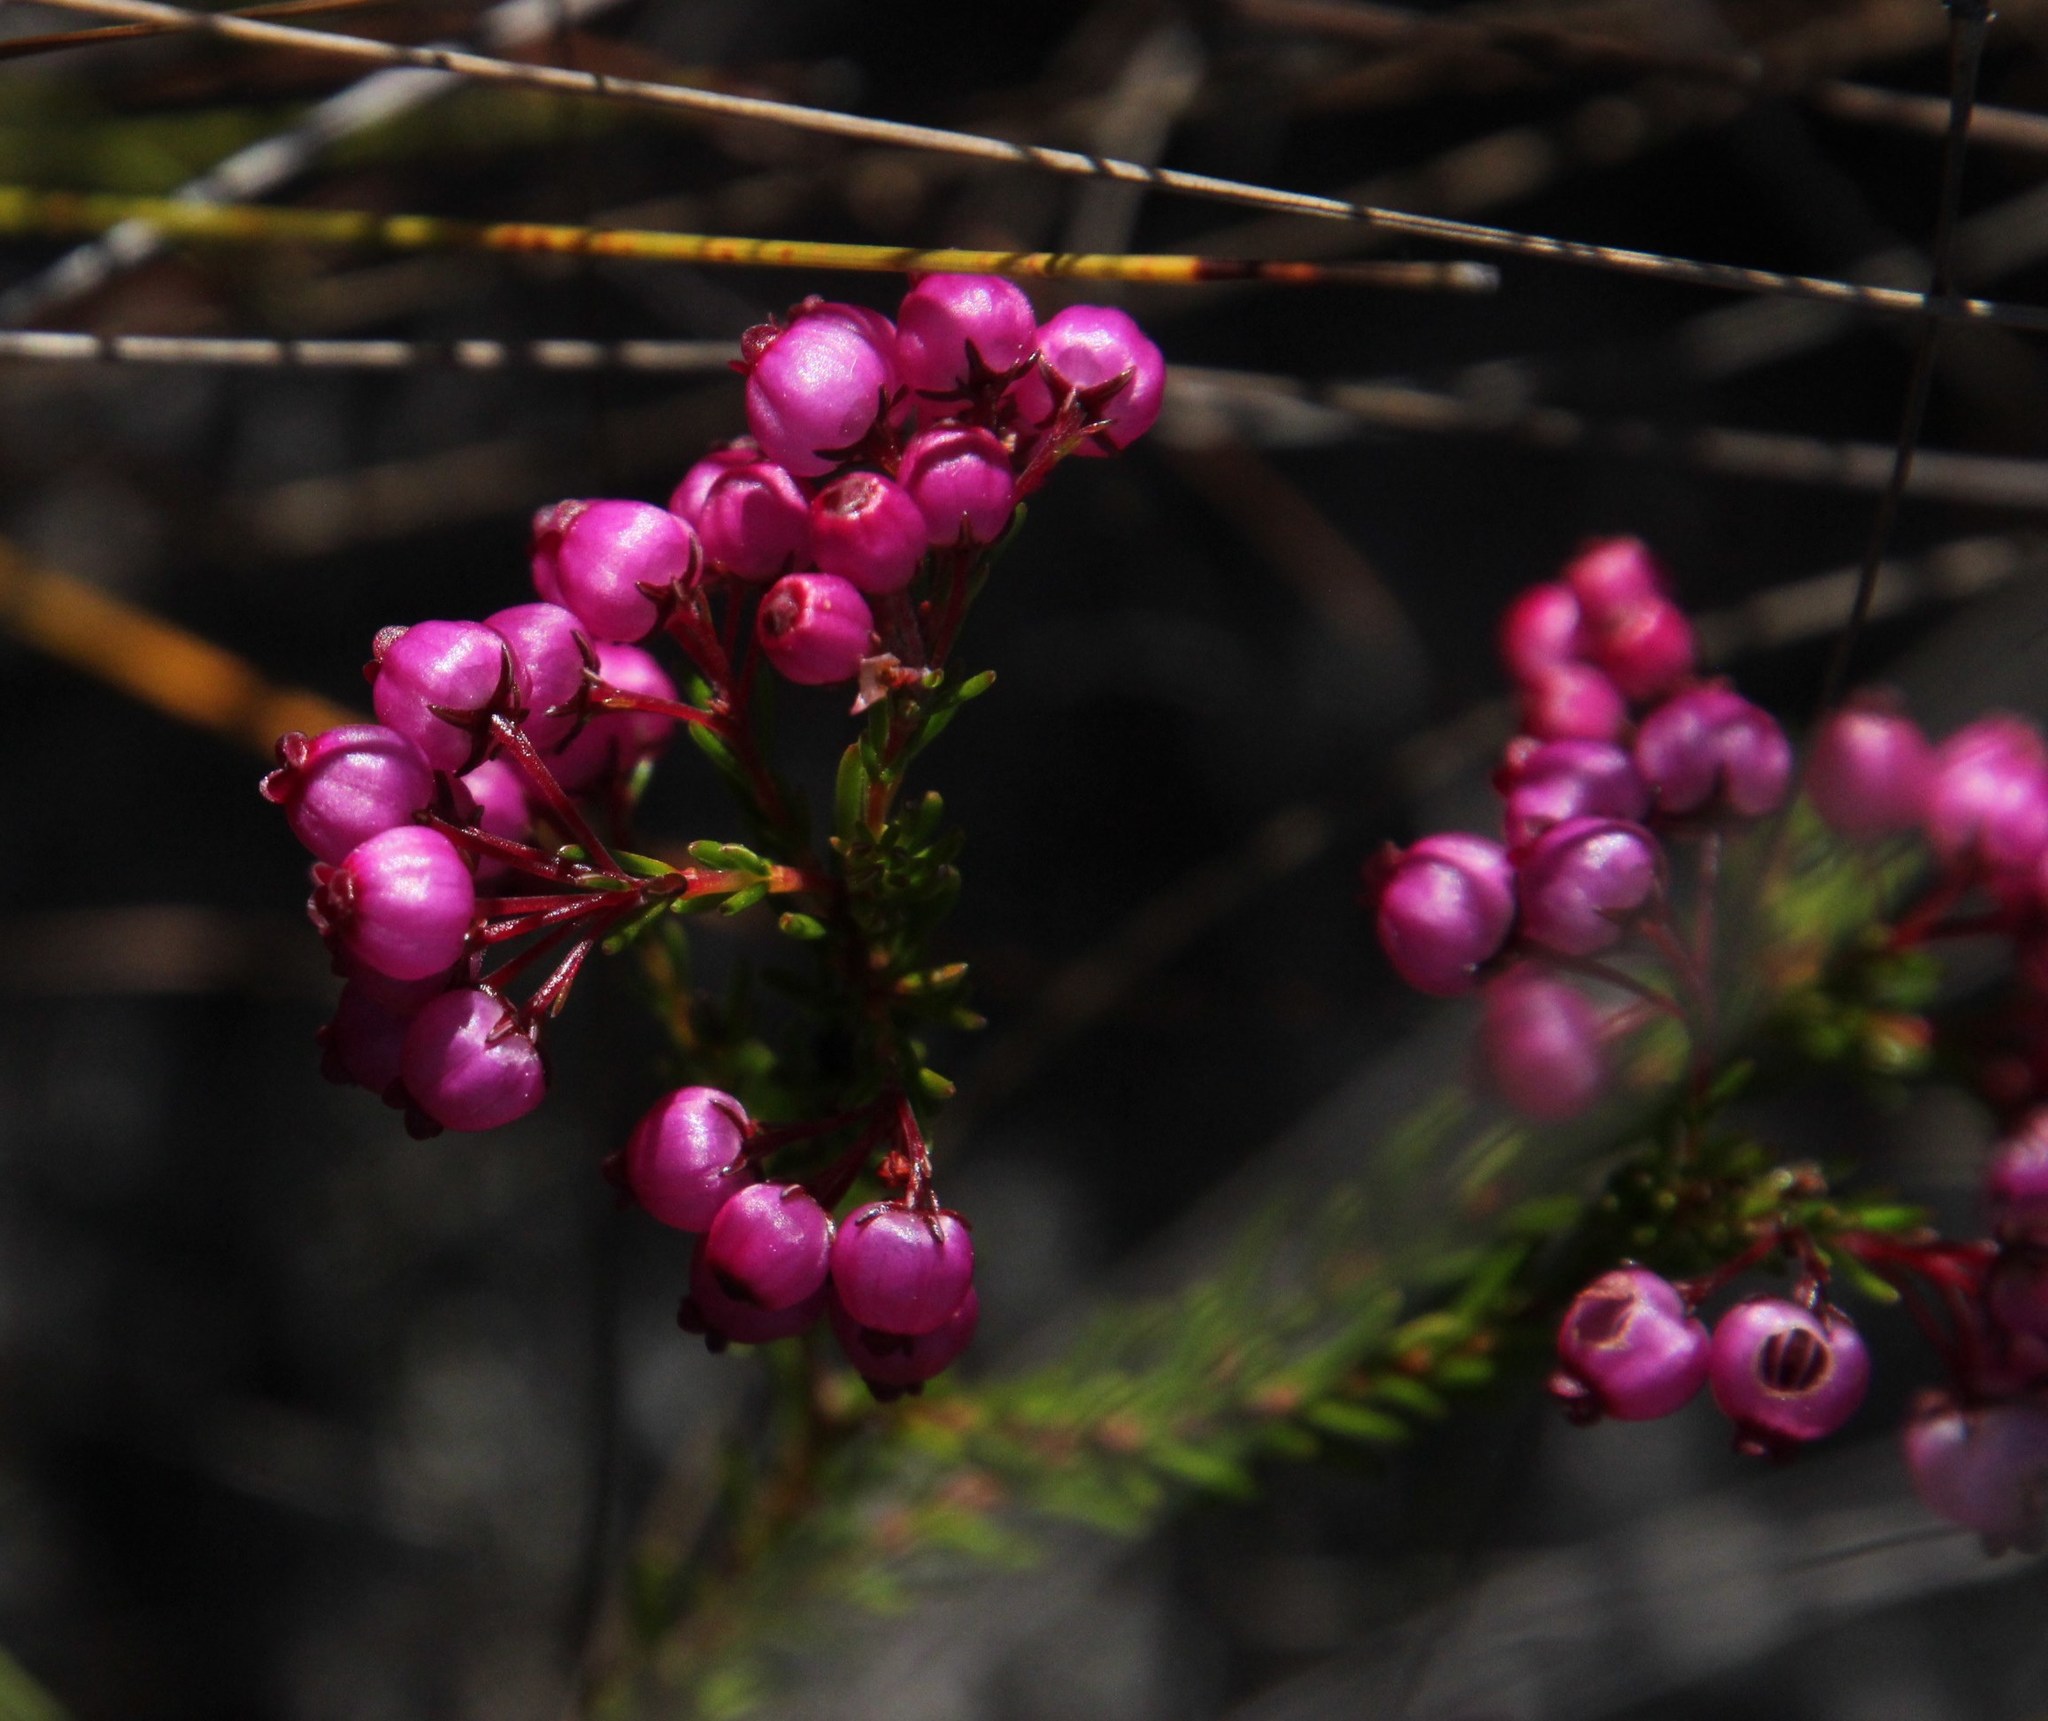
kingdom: Plantae
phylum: Tracheophyta
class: Magnoliopsida
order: Ericales
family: Ericaceae
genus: Erica
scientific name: Erica multumbellifera
